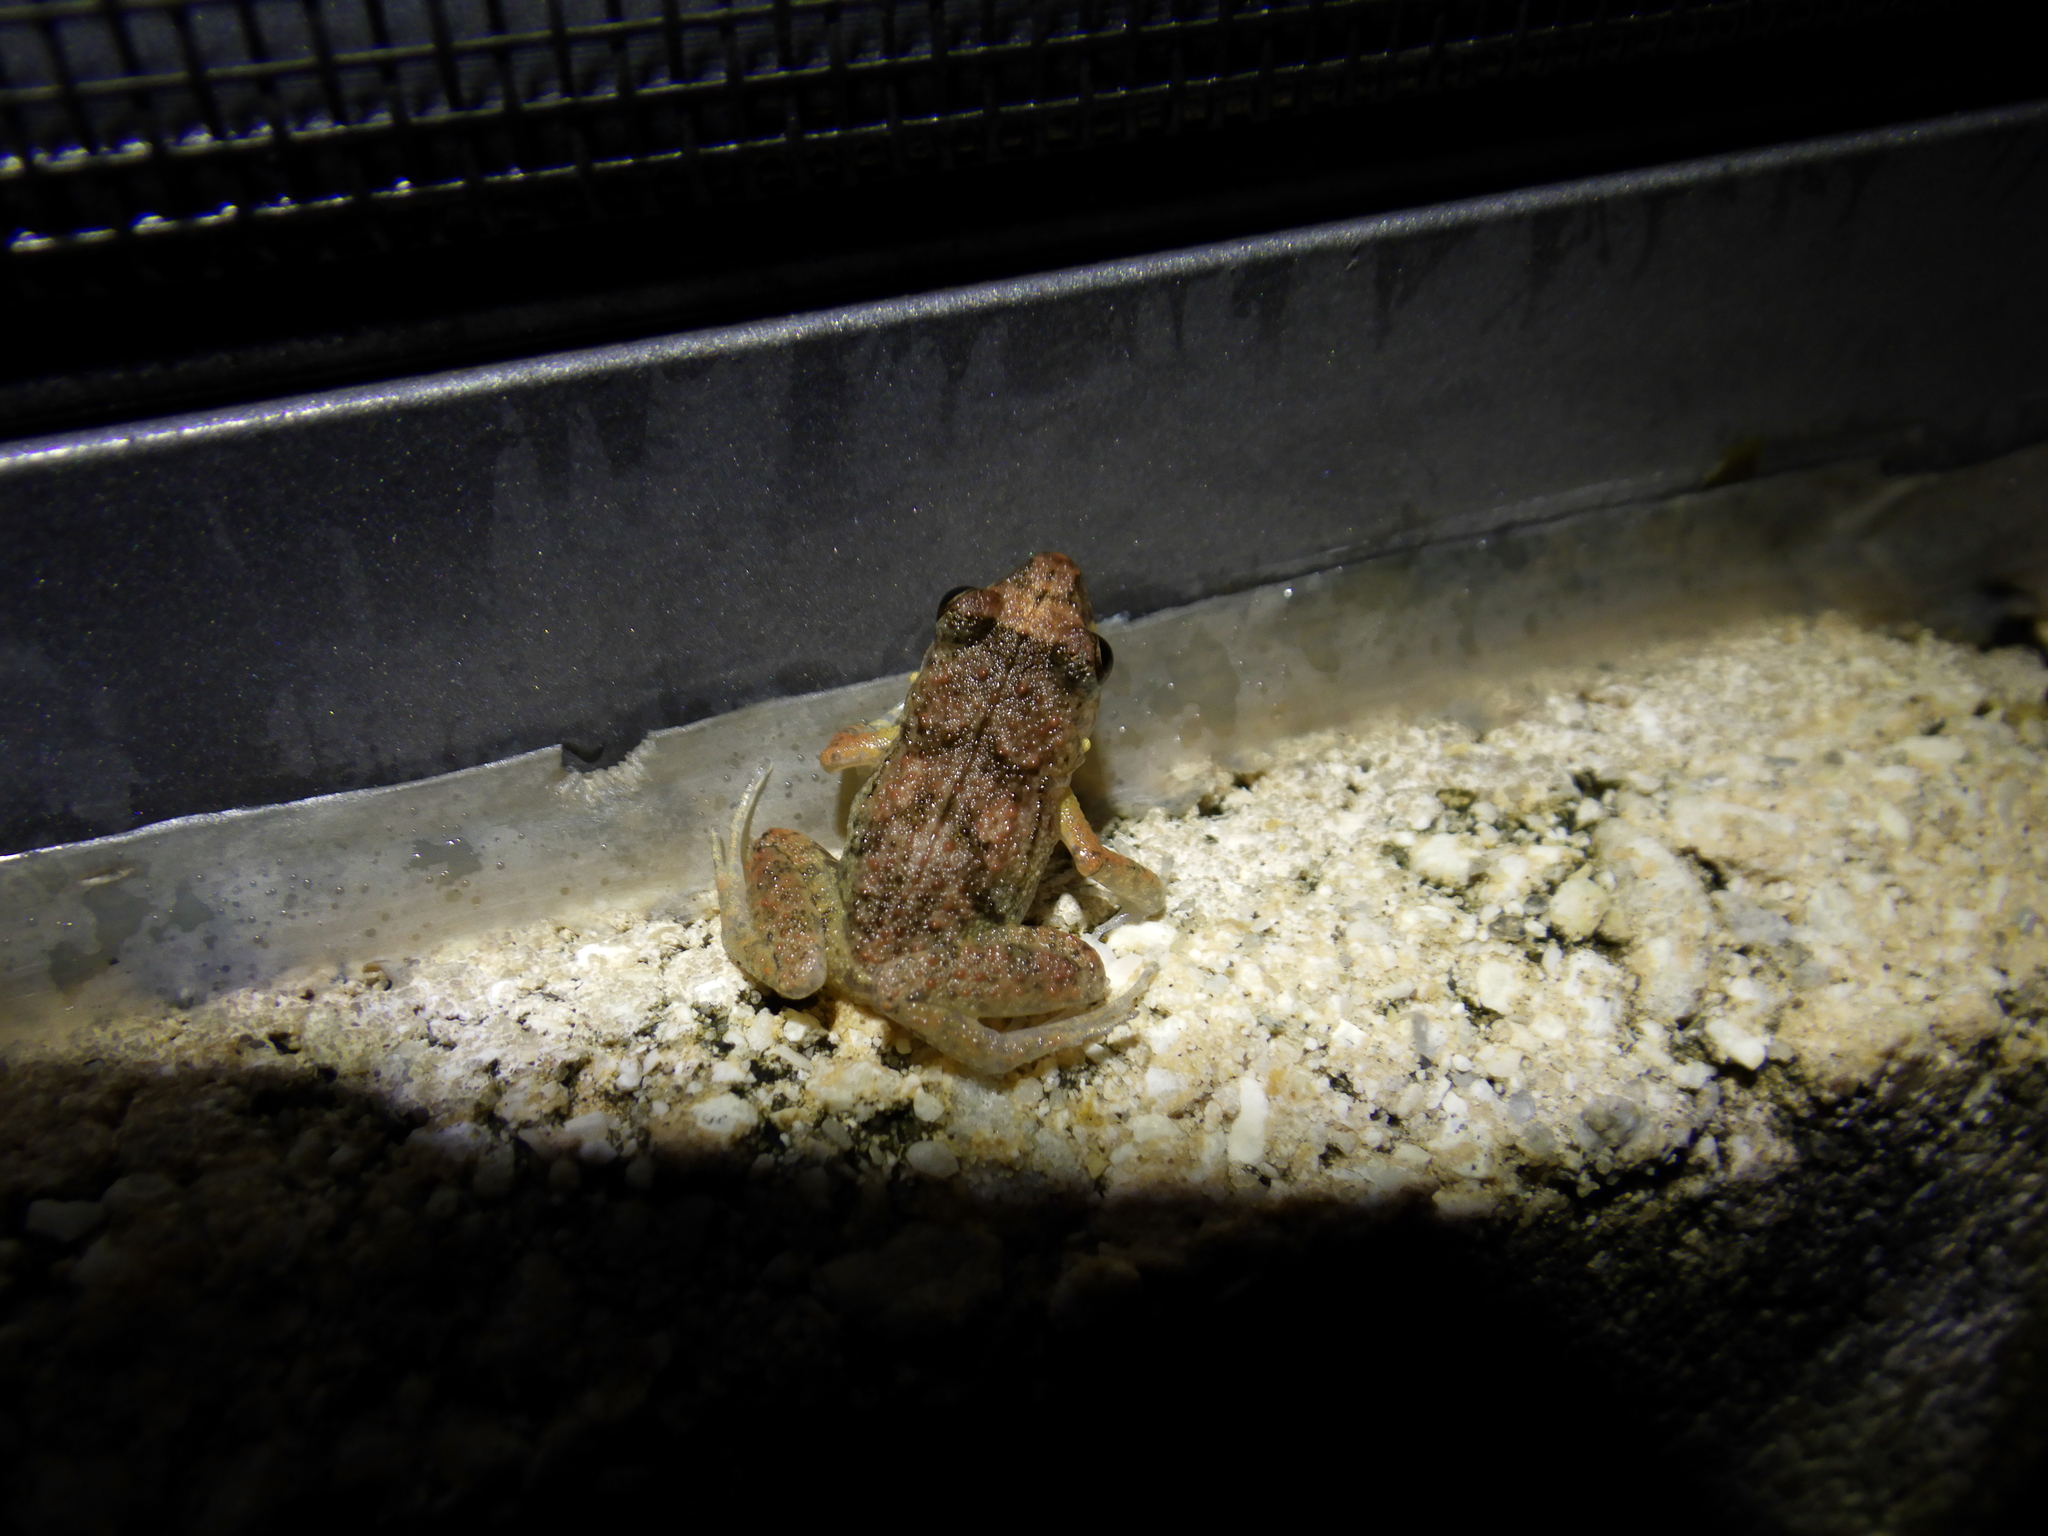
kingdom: Animalia
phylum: Chordata
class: Amphibia
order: Anura
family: Eleutherodactylidae
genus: Eleutherodactylus
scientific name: Eleutherodactylus planirostris
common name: Greenhouse frog
